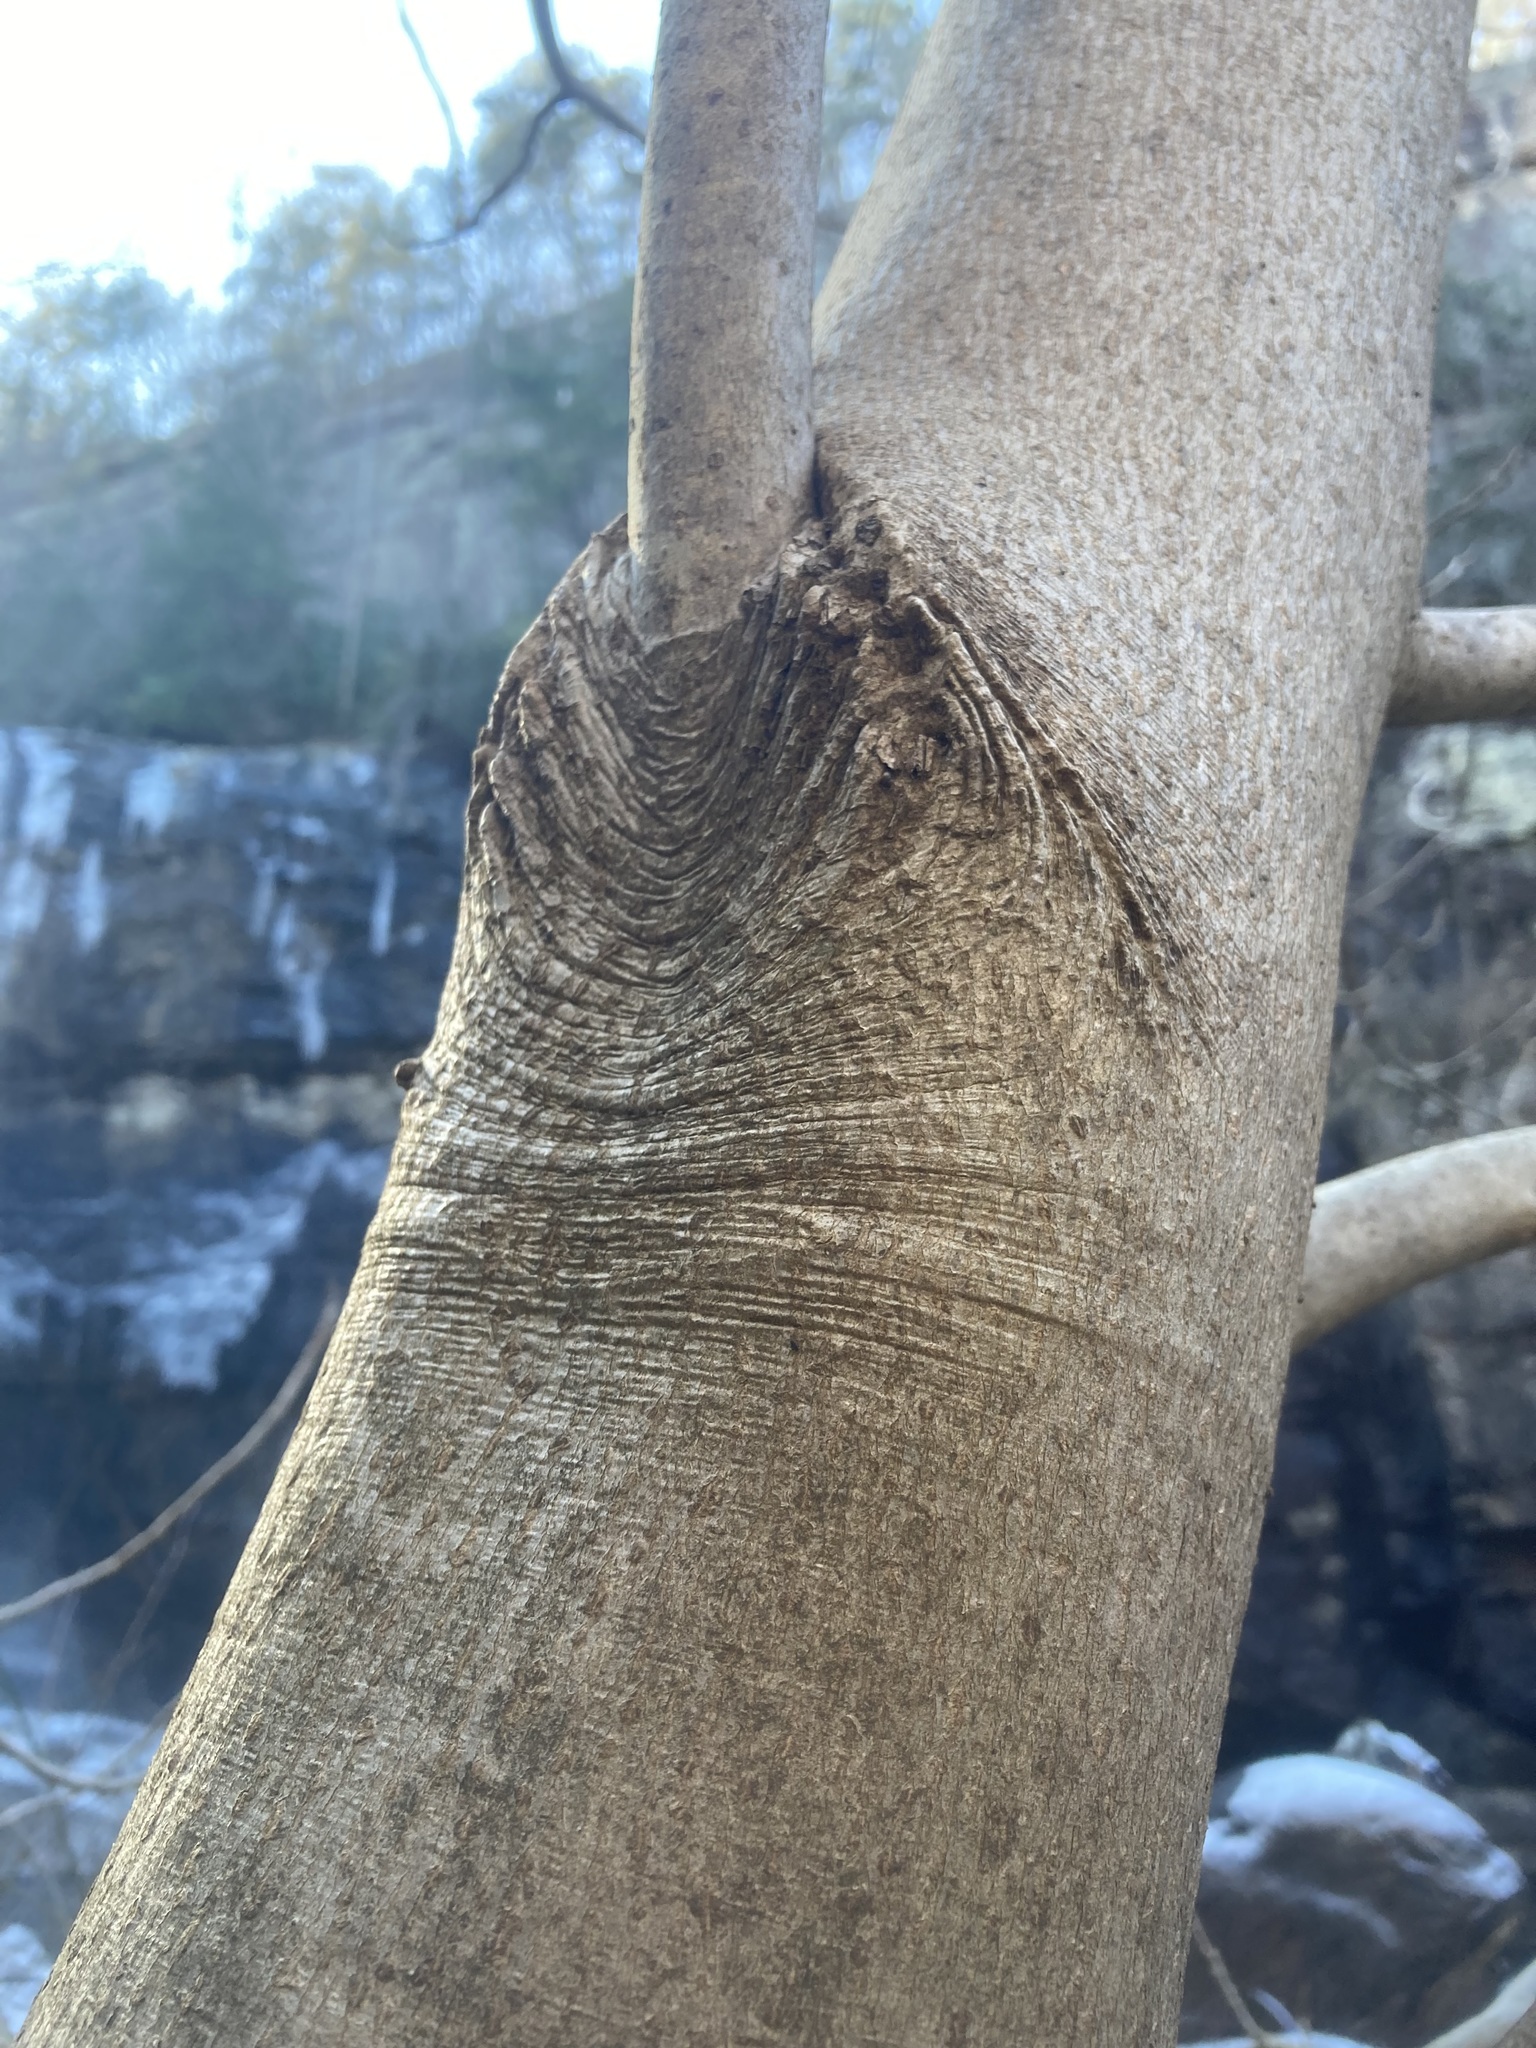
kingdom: Plantae
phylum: Tracheophyta
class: Magnoliopsida
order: Magnoliales
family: Magnoliaceae
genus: Magnolia
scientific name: Magnolia tripetala
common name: Umbrella magnolia
